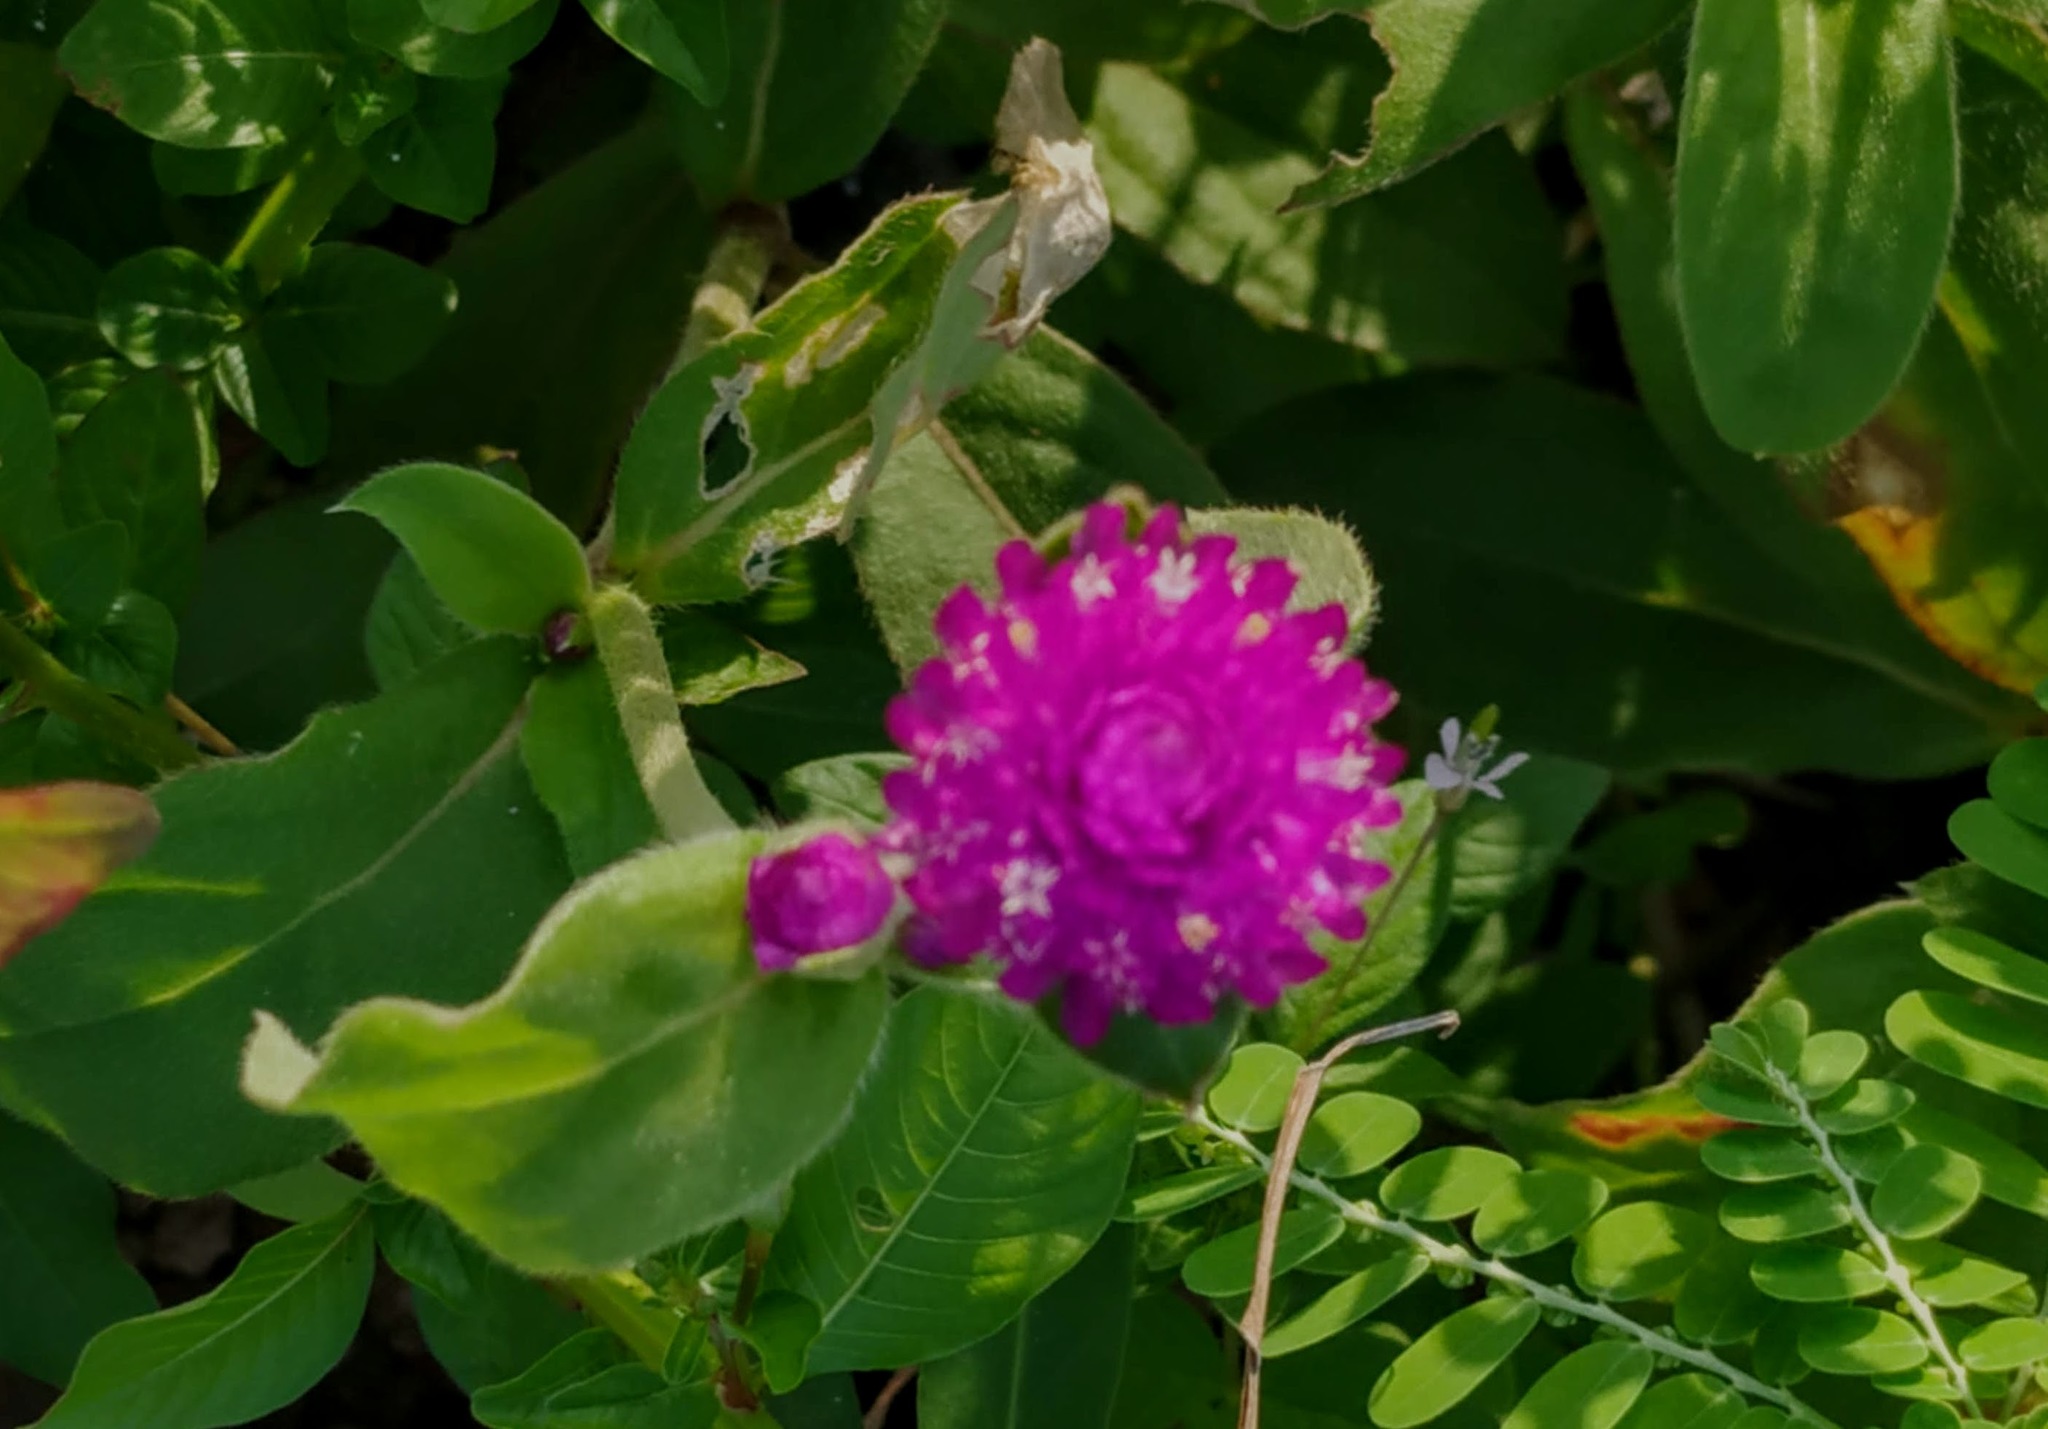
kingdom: Plantae
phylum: Tracheophyta
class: Magnoliopsida
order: Caryophyllales
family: Amaranthaceae
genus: Gomphrena
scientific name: Gomphrena globosa
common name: Common globe amaranth
